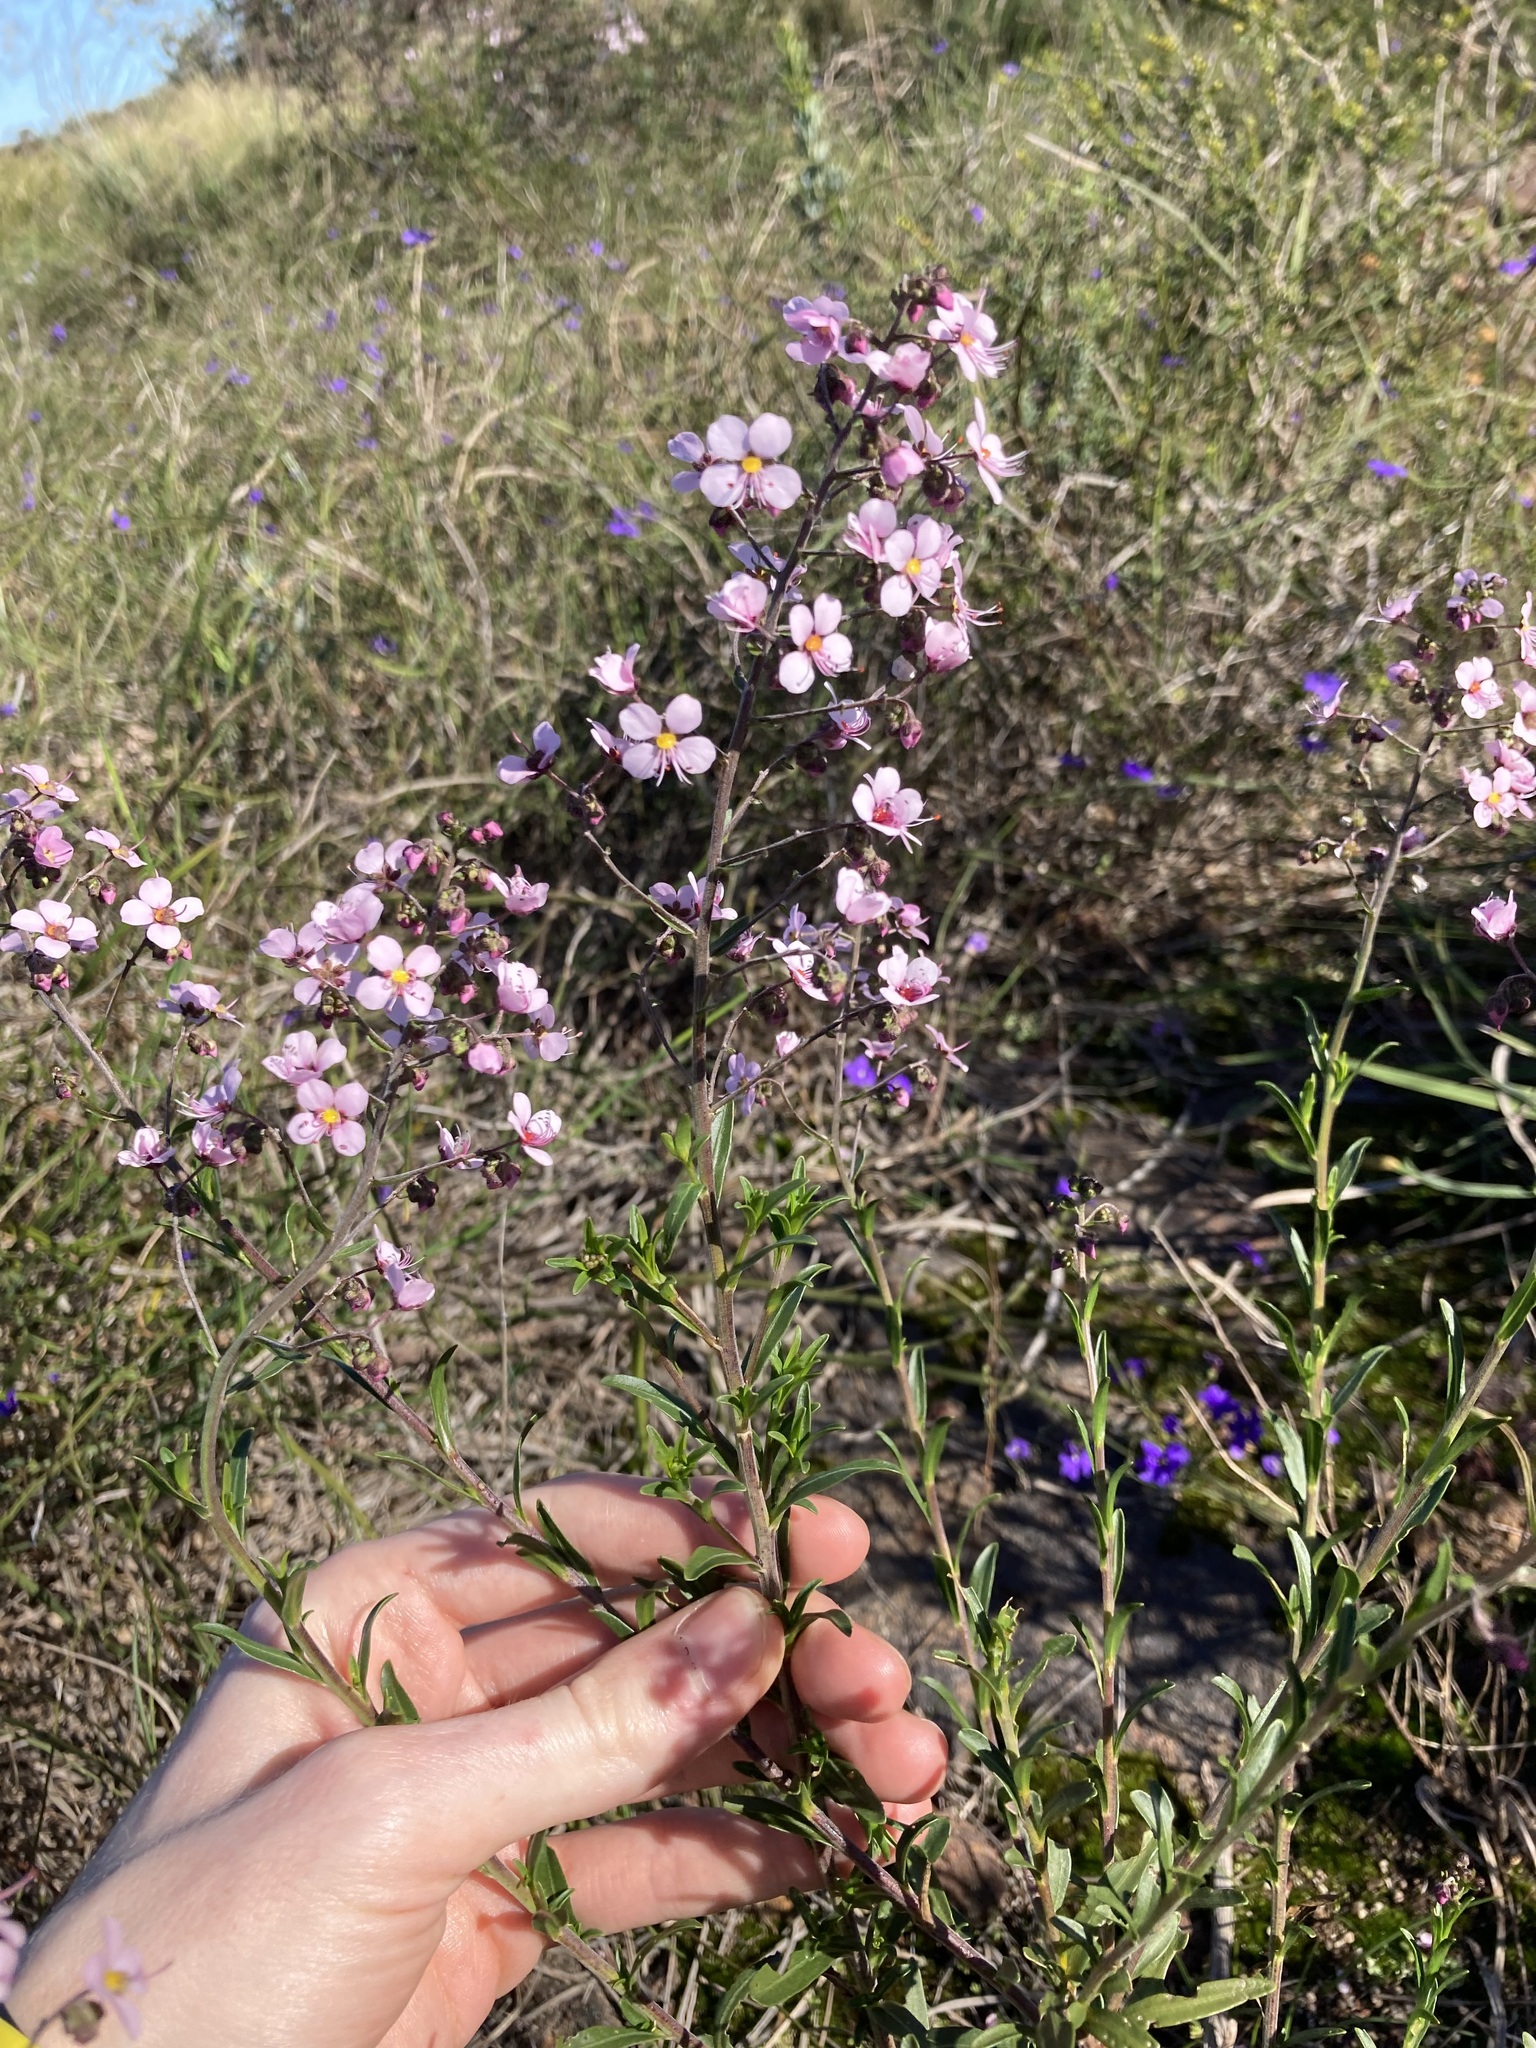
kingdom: Plantae
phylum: Tracheophyta
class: Magnoliopsida
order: Sapindales
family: Sapindaceae
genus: Diplopeltis
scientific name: Diplopeltis huegelii
